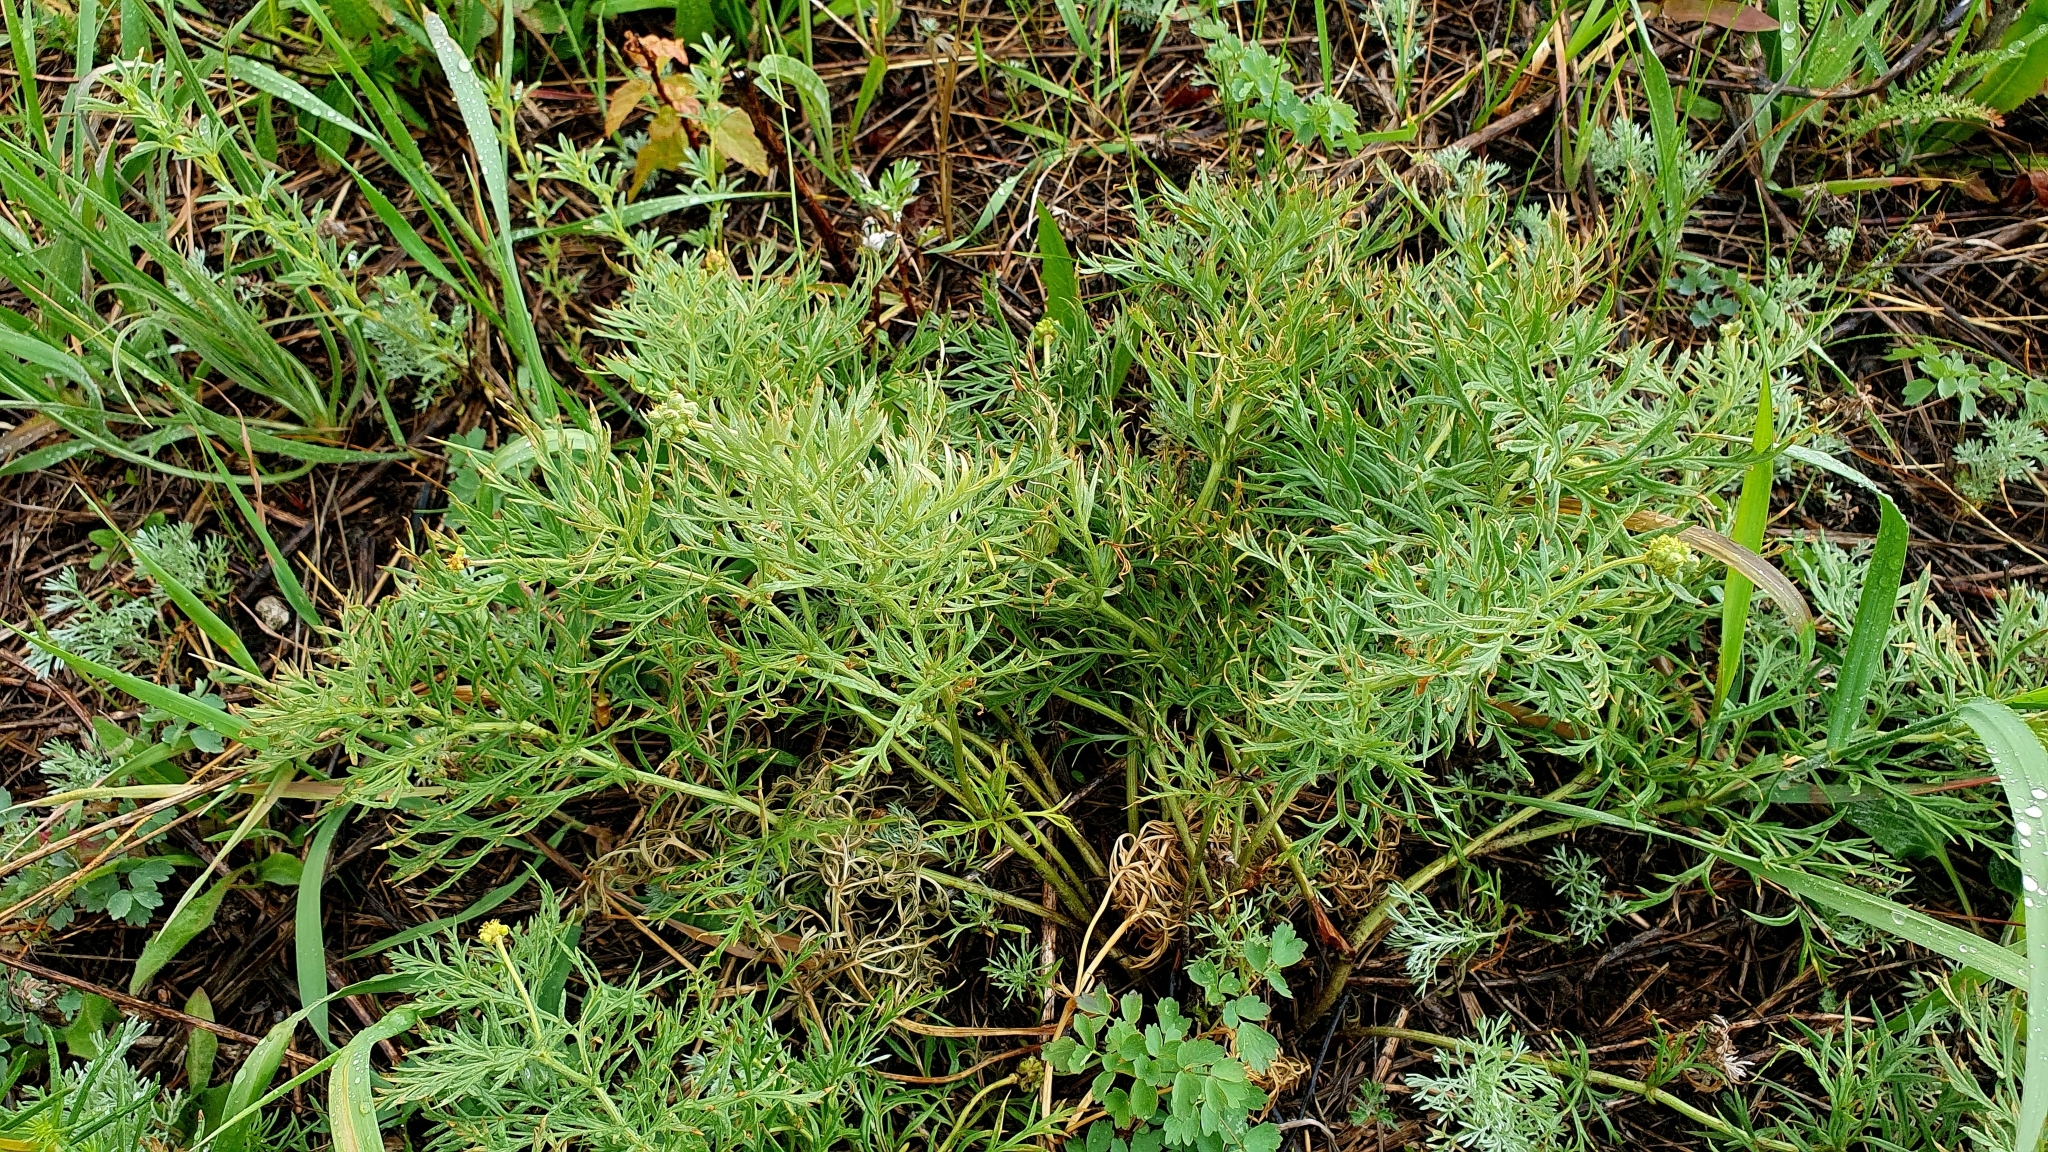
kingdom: Plantae
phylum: Tracheophyta
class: Magnoliopsida
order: Ranunculales
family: Ranunculaceae
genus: Adonis
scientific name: Adonis volgensis
